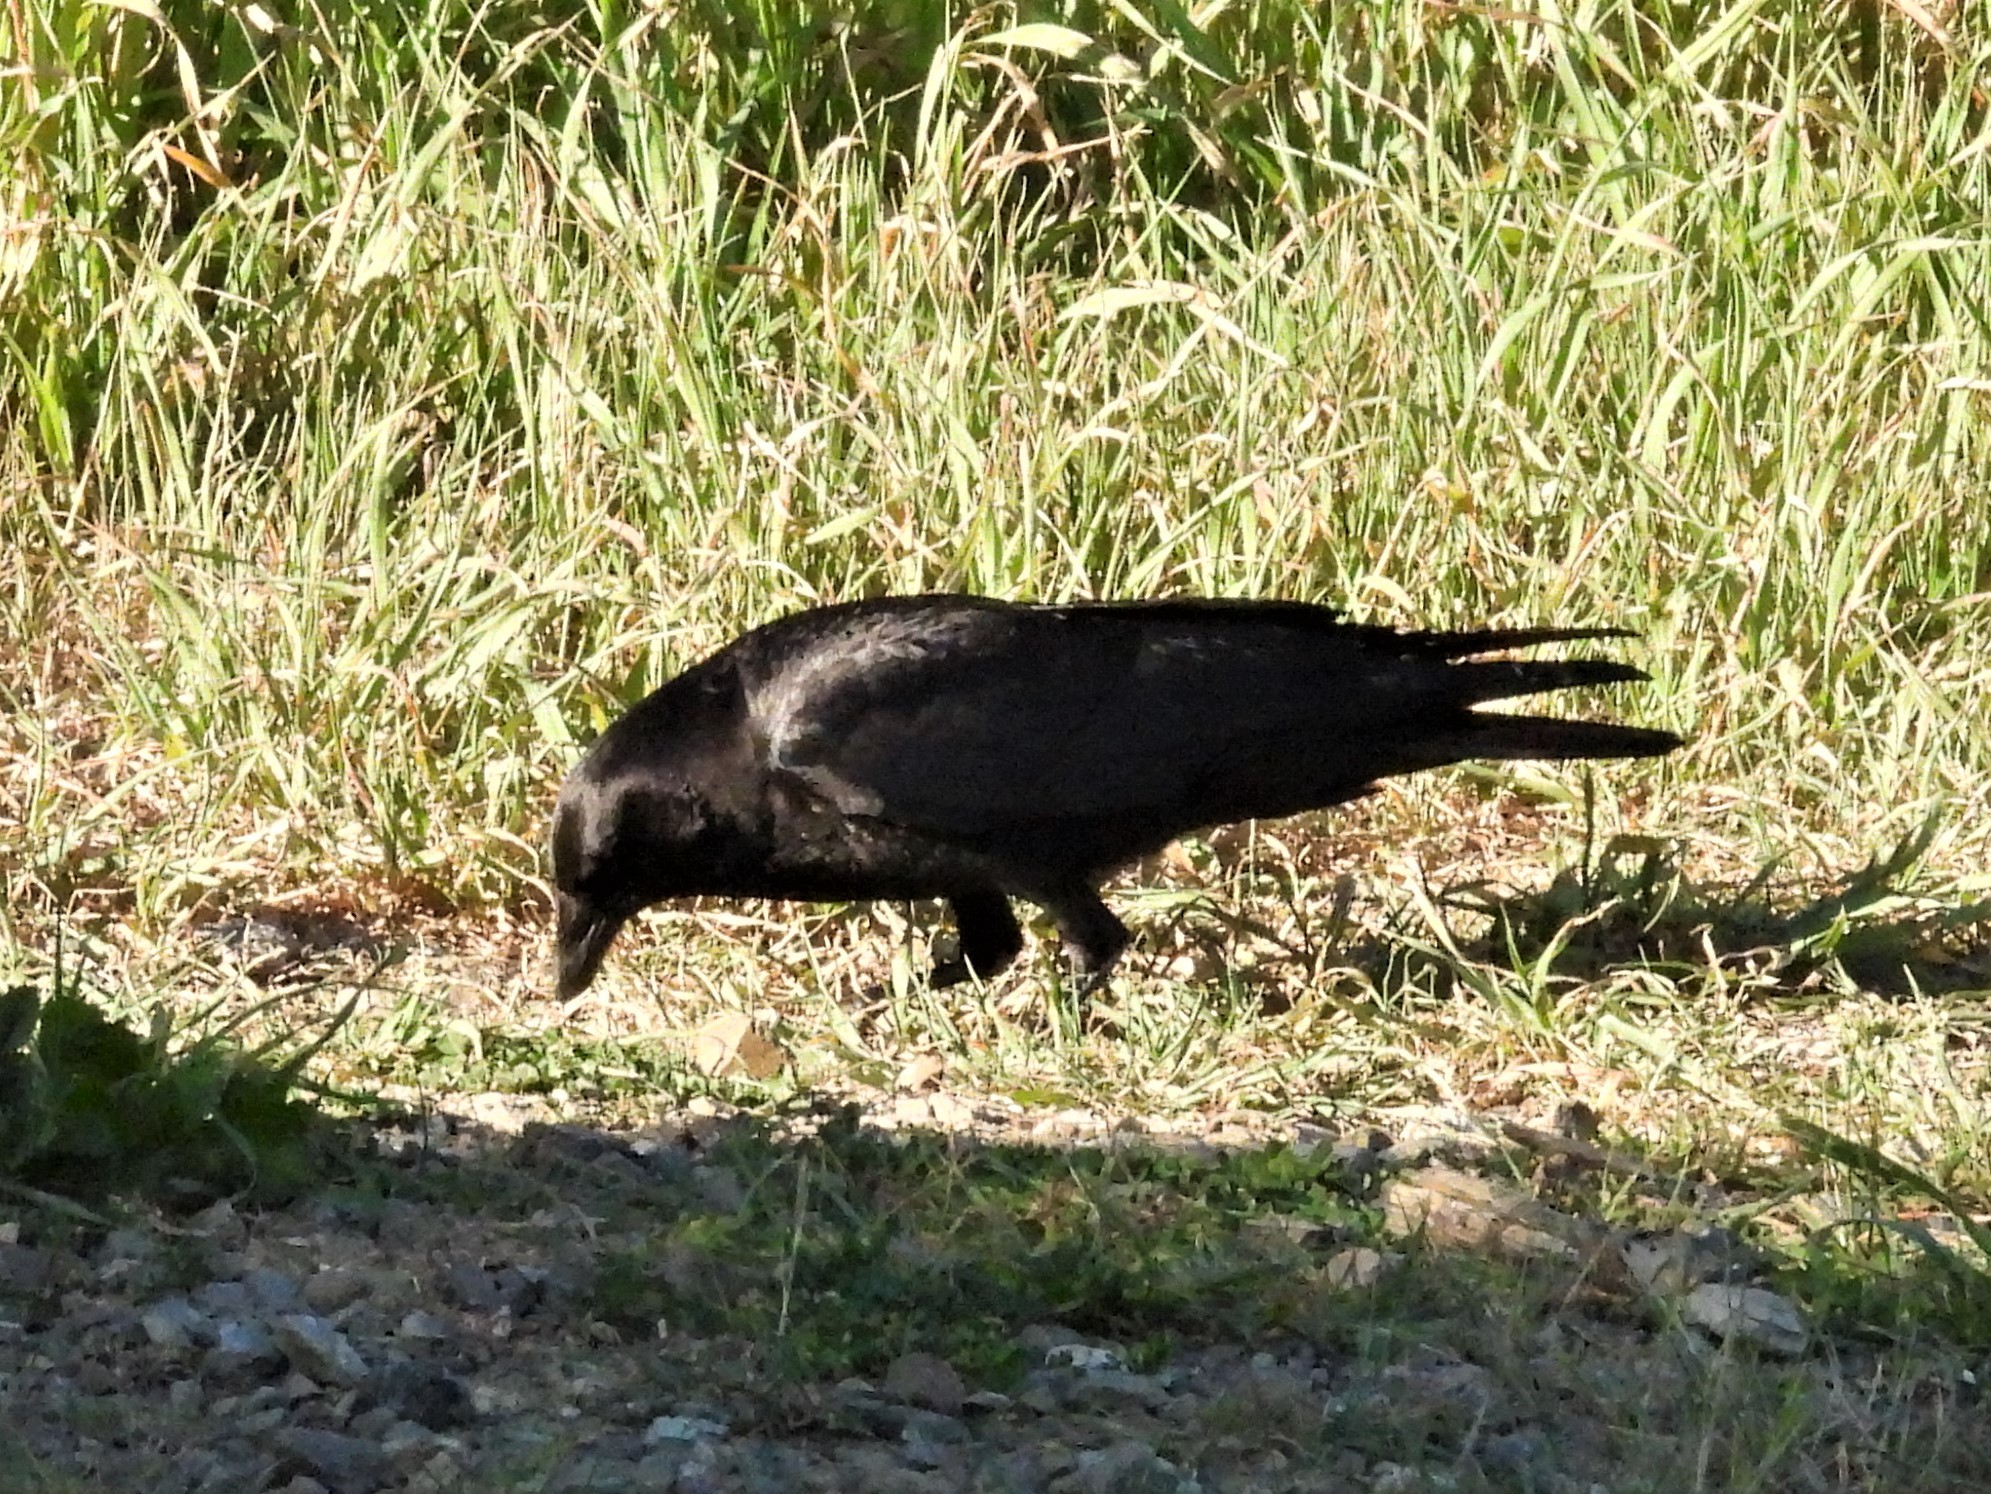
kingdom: Animalia
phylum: Chordata
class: Aves
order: Passeriformes
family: Corvidae
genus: Corvus
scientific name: Corvus brachyrhynchos
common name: American crow
